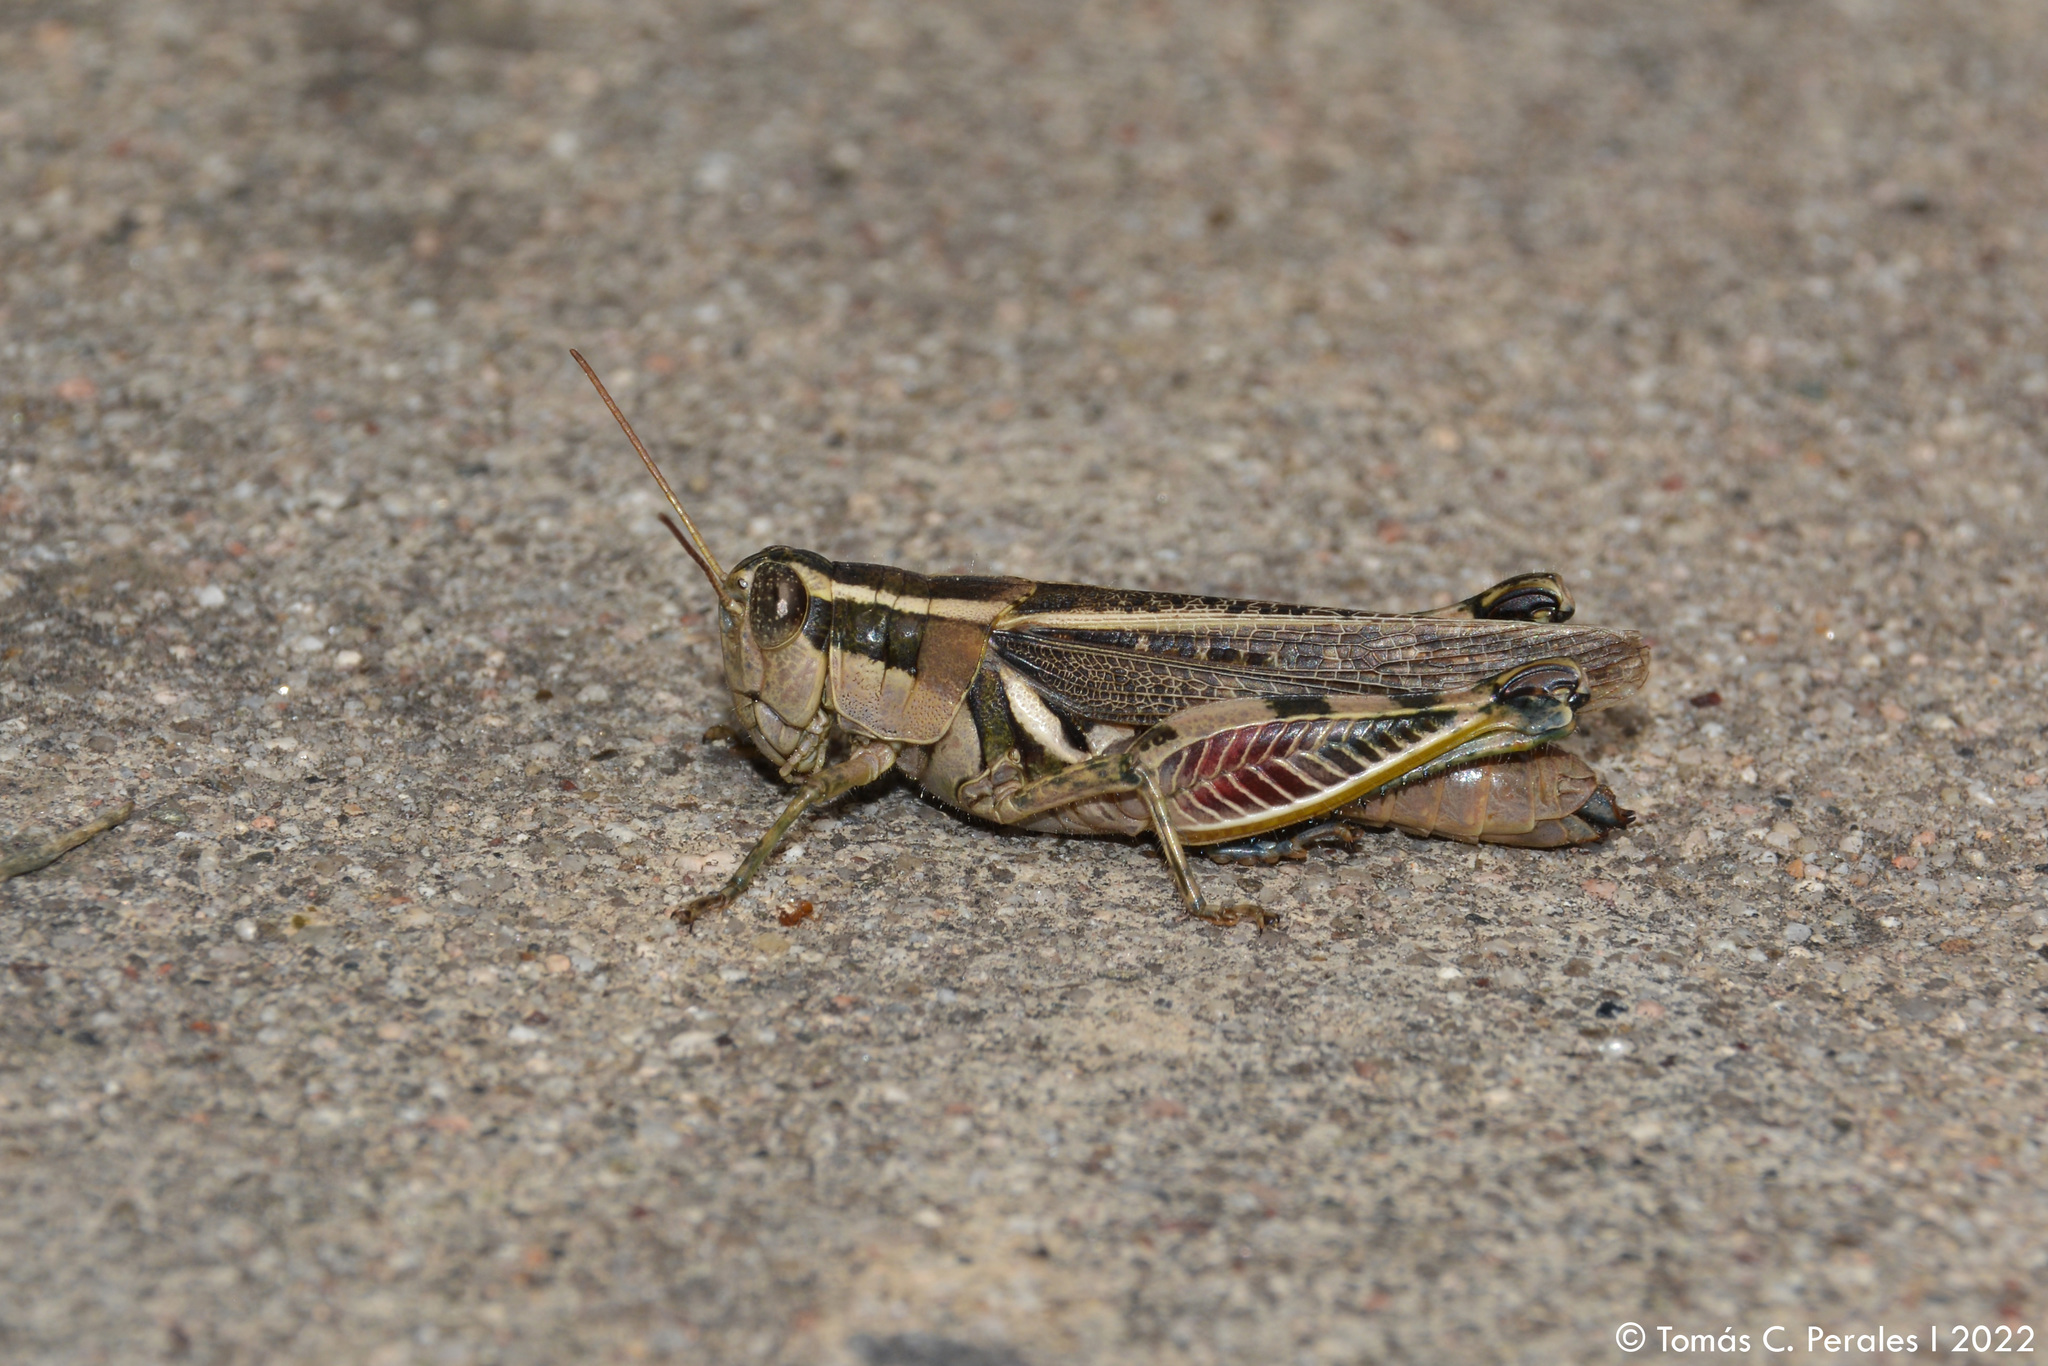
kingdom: Animalia
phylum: Arthropoda
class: Insecta
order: Orthoptera
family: Acrididae
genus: Dichroplus
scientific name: Dichroplus vittatus
